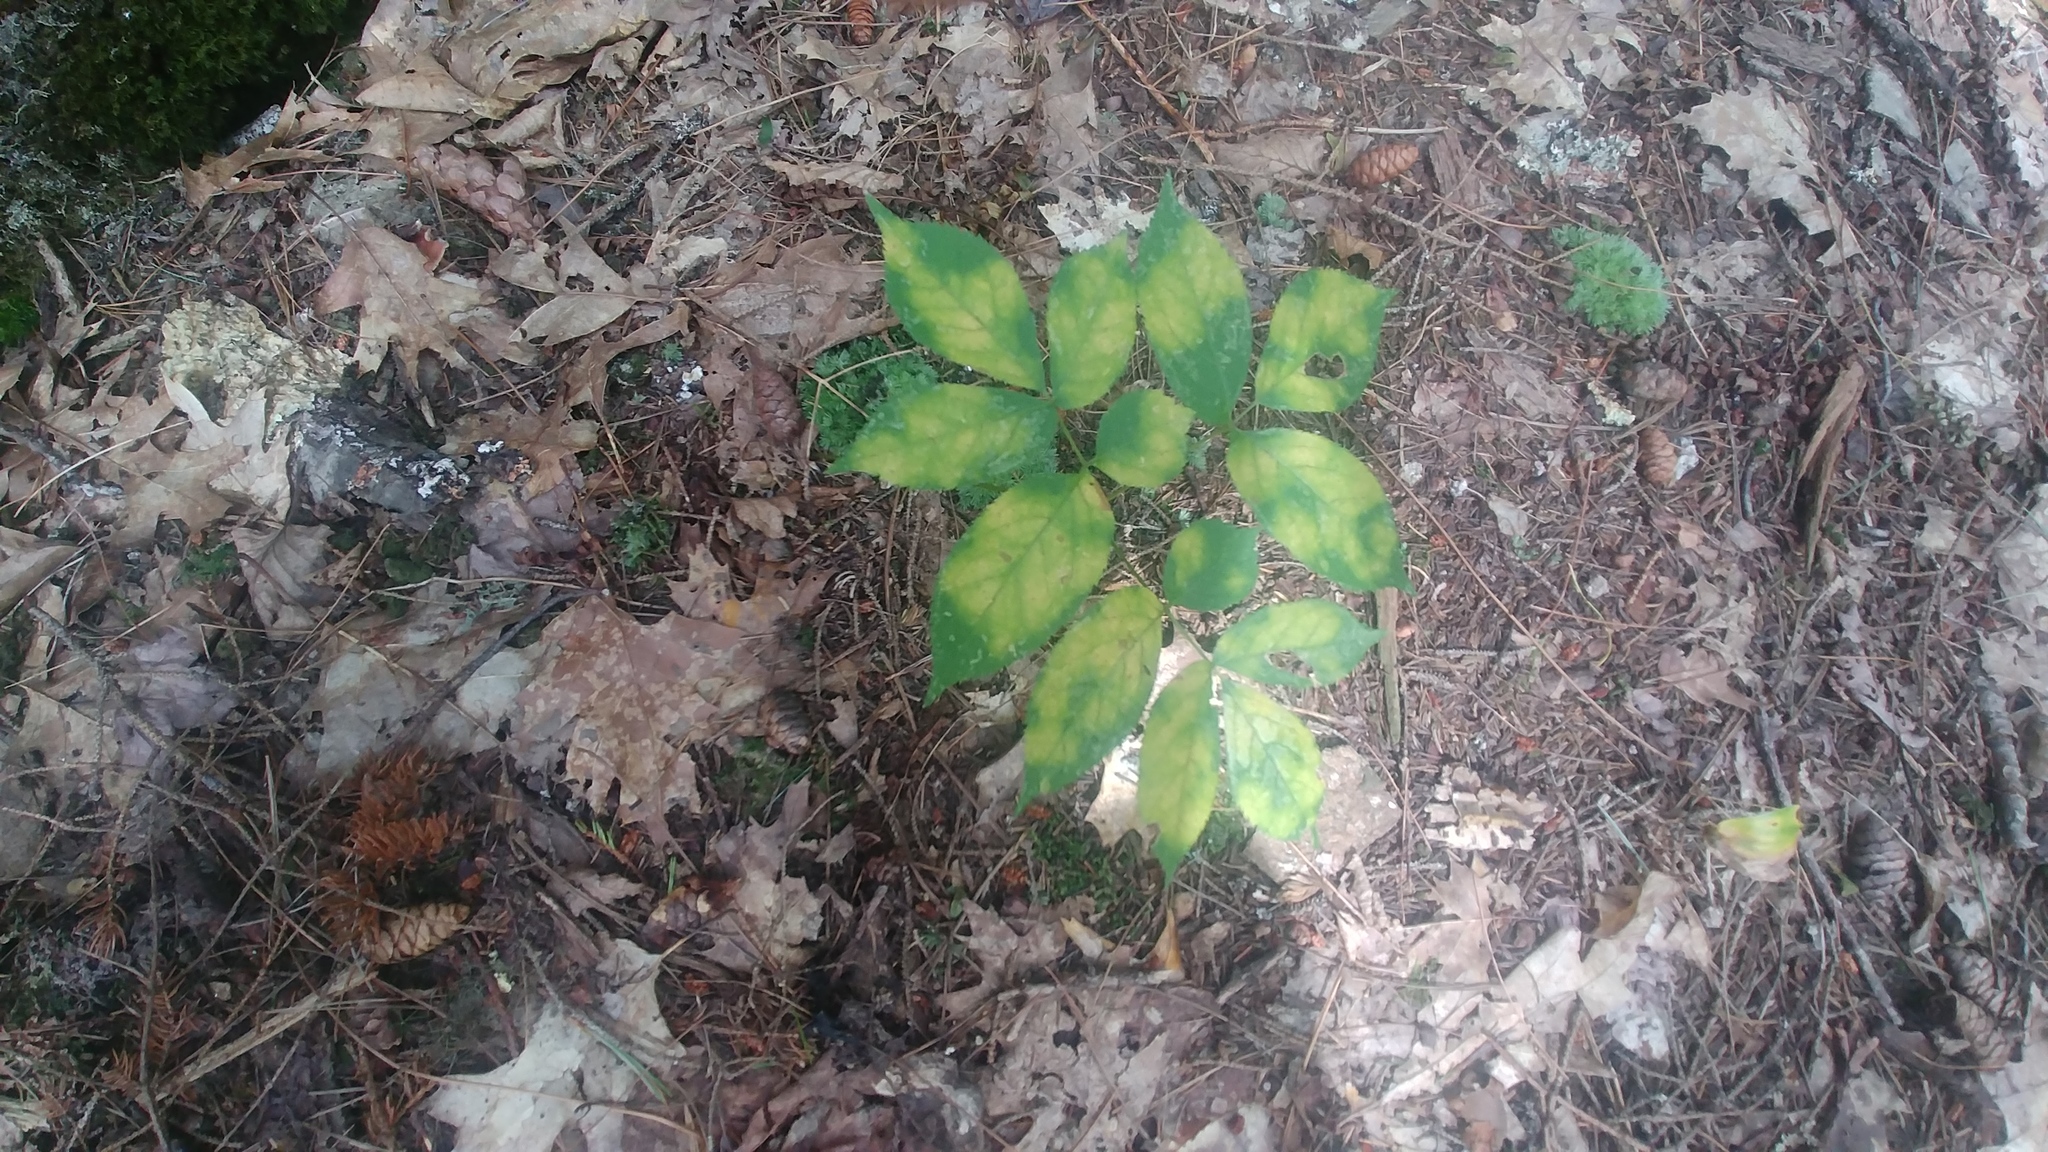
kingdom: Plantae
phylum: Tracheophyta
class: Magnoliopsida
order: Apiales
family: Araliaceae
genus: Aralia
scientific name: Aralia nudicaulis
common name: Wild sarsaparilla
